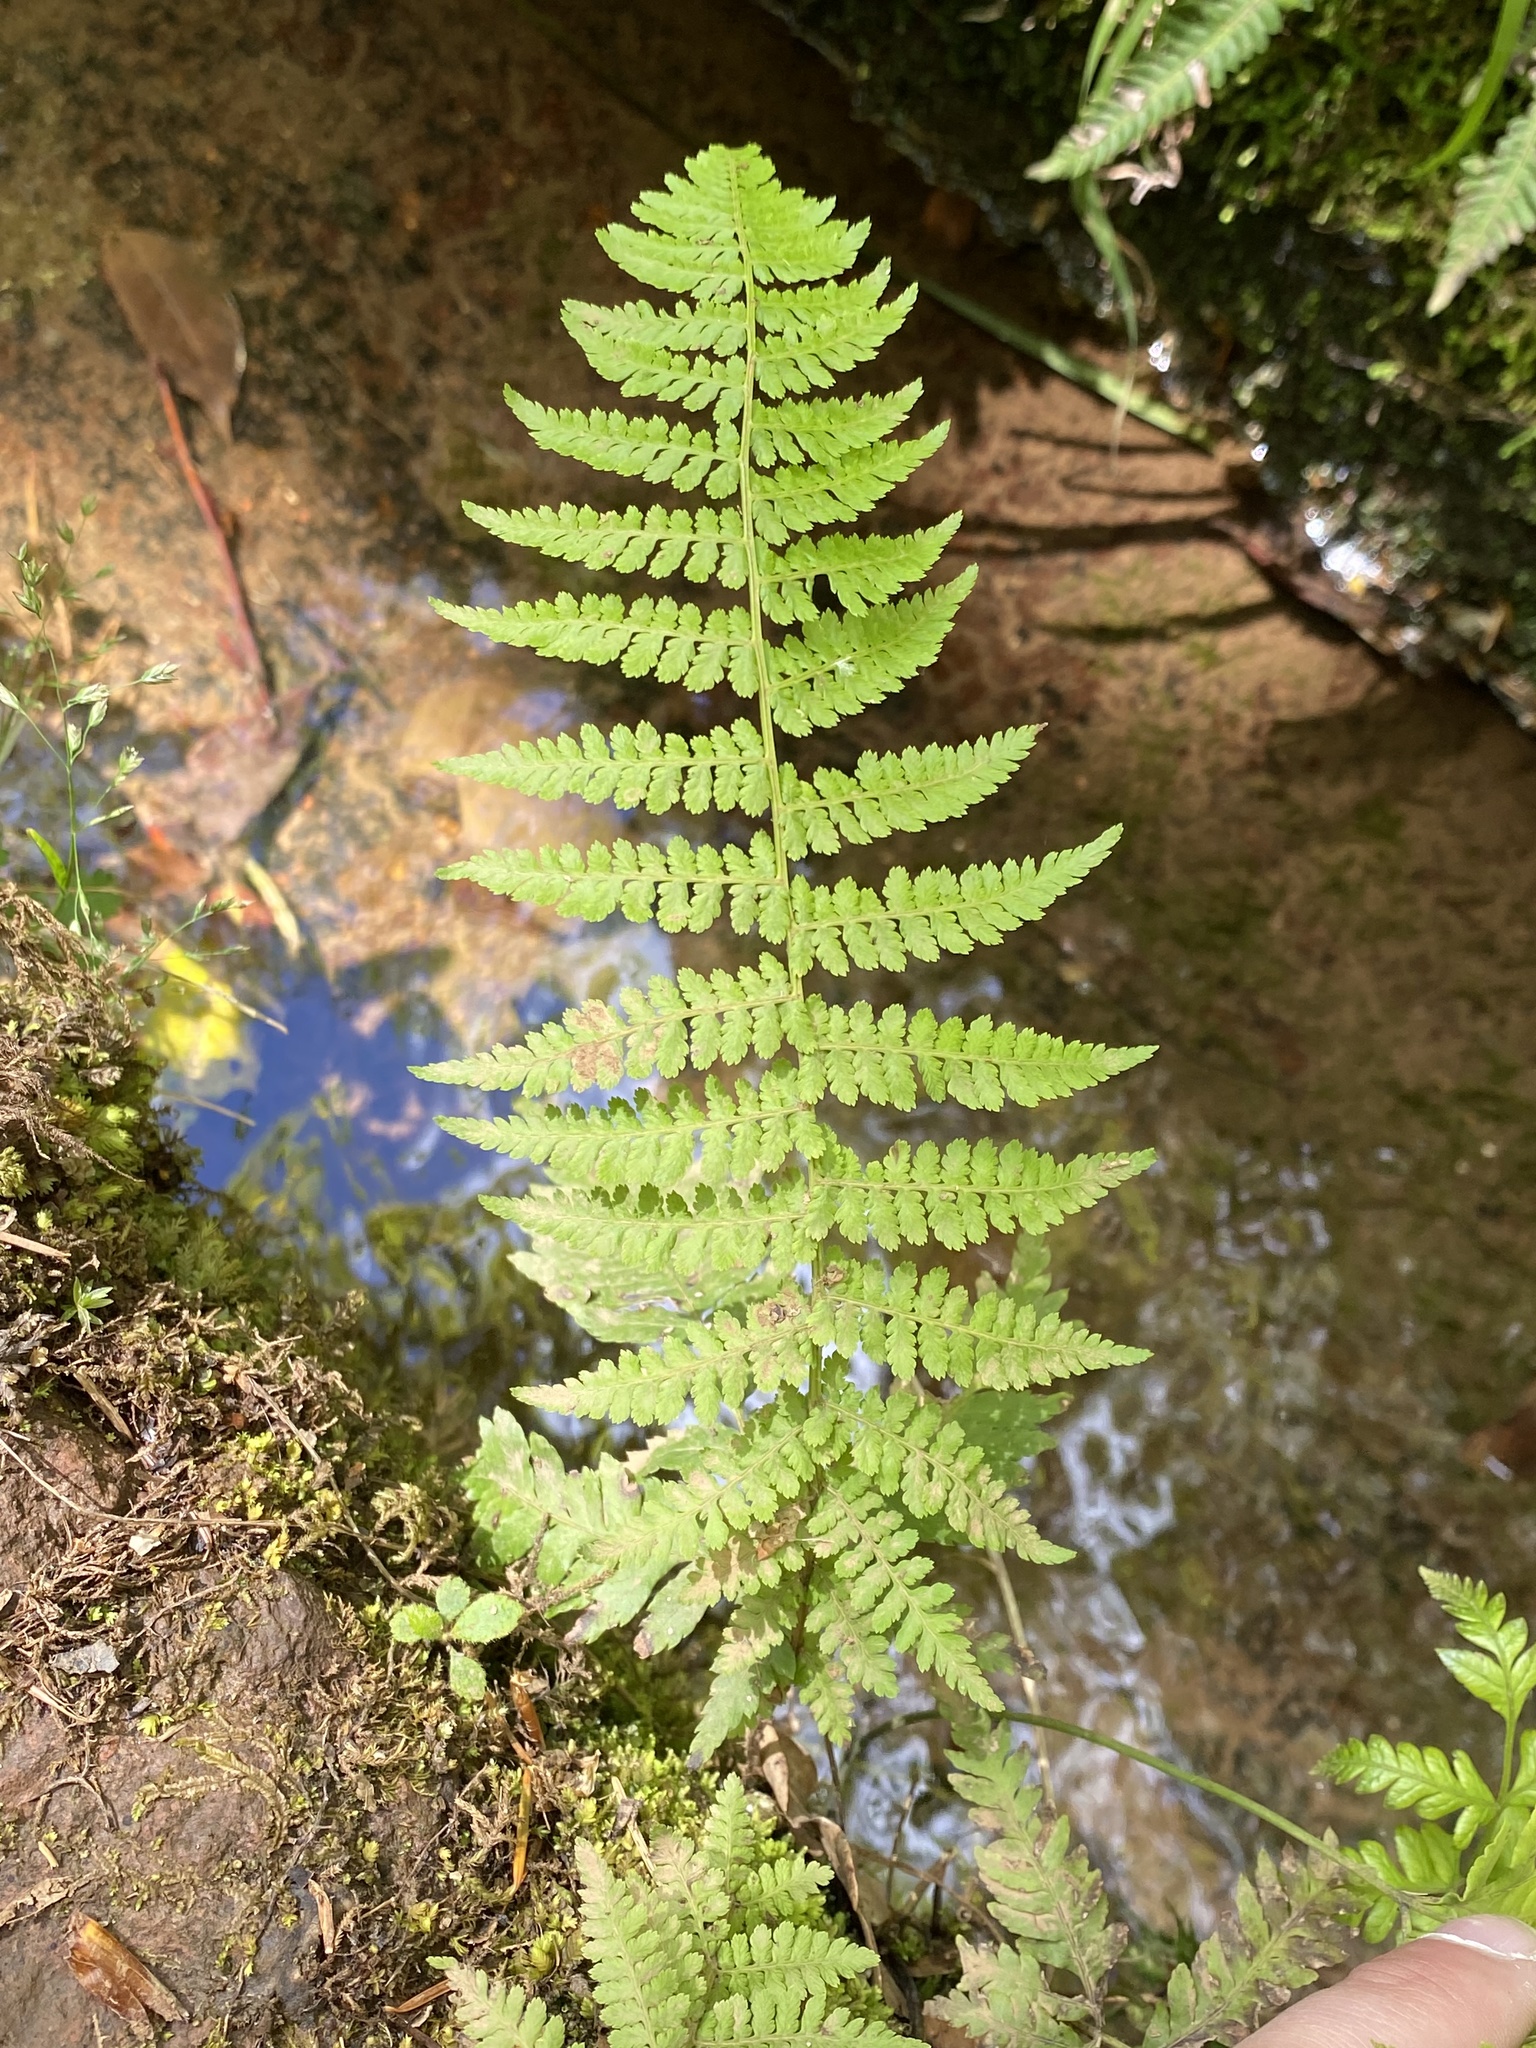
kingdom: Plantae
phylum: Tracheophyta
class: Polypodiopsida
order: Polypodiales
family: Athyriaceae
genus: Athyrium
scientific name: Athyrium filix-femina
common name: Lady fern
